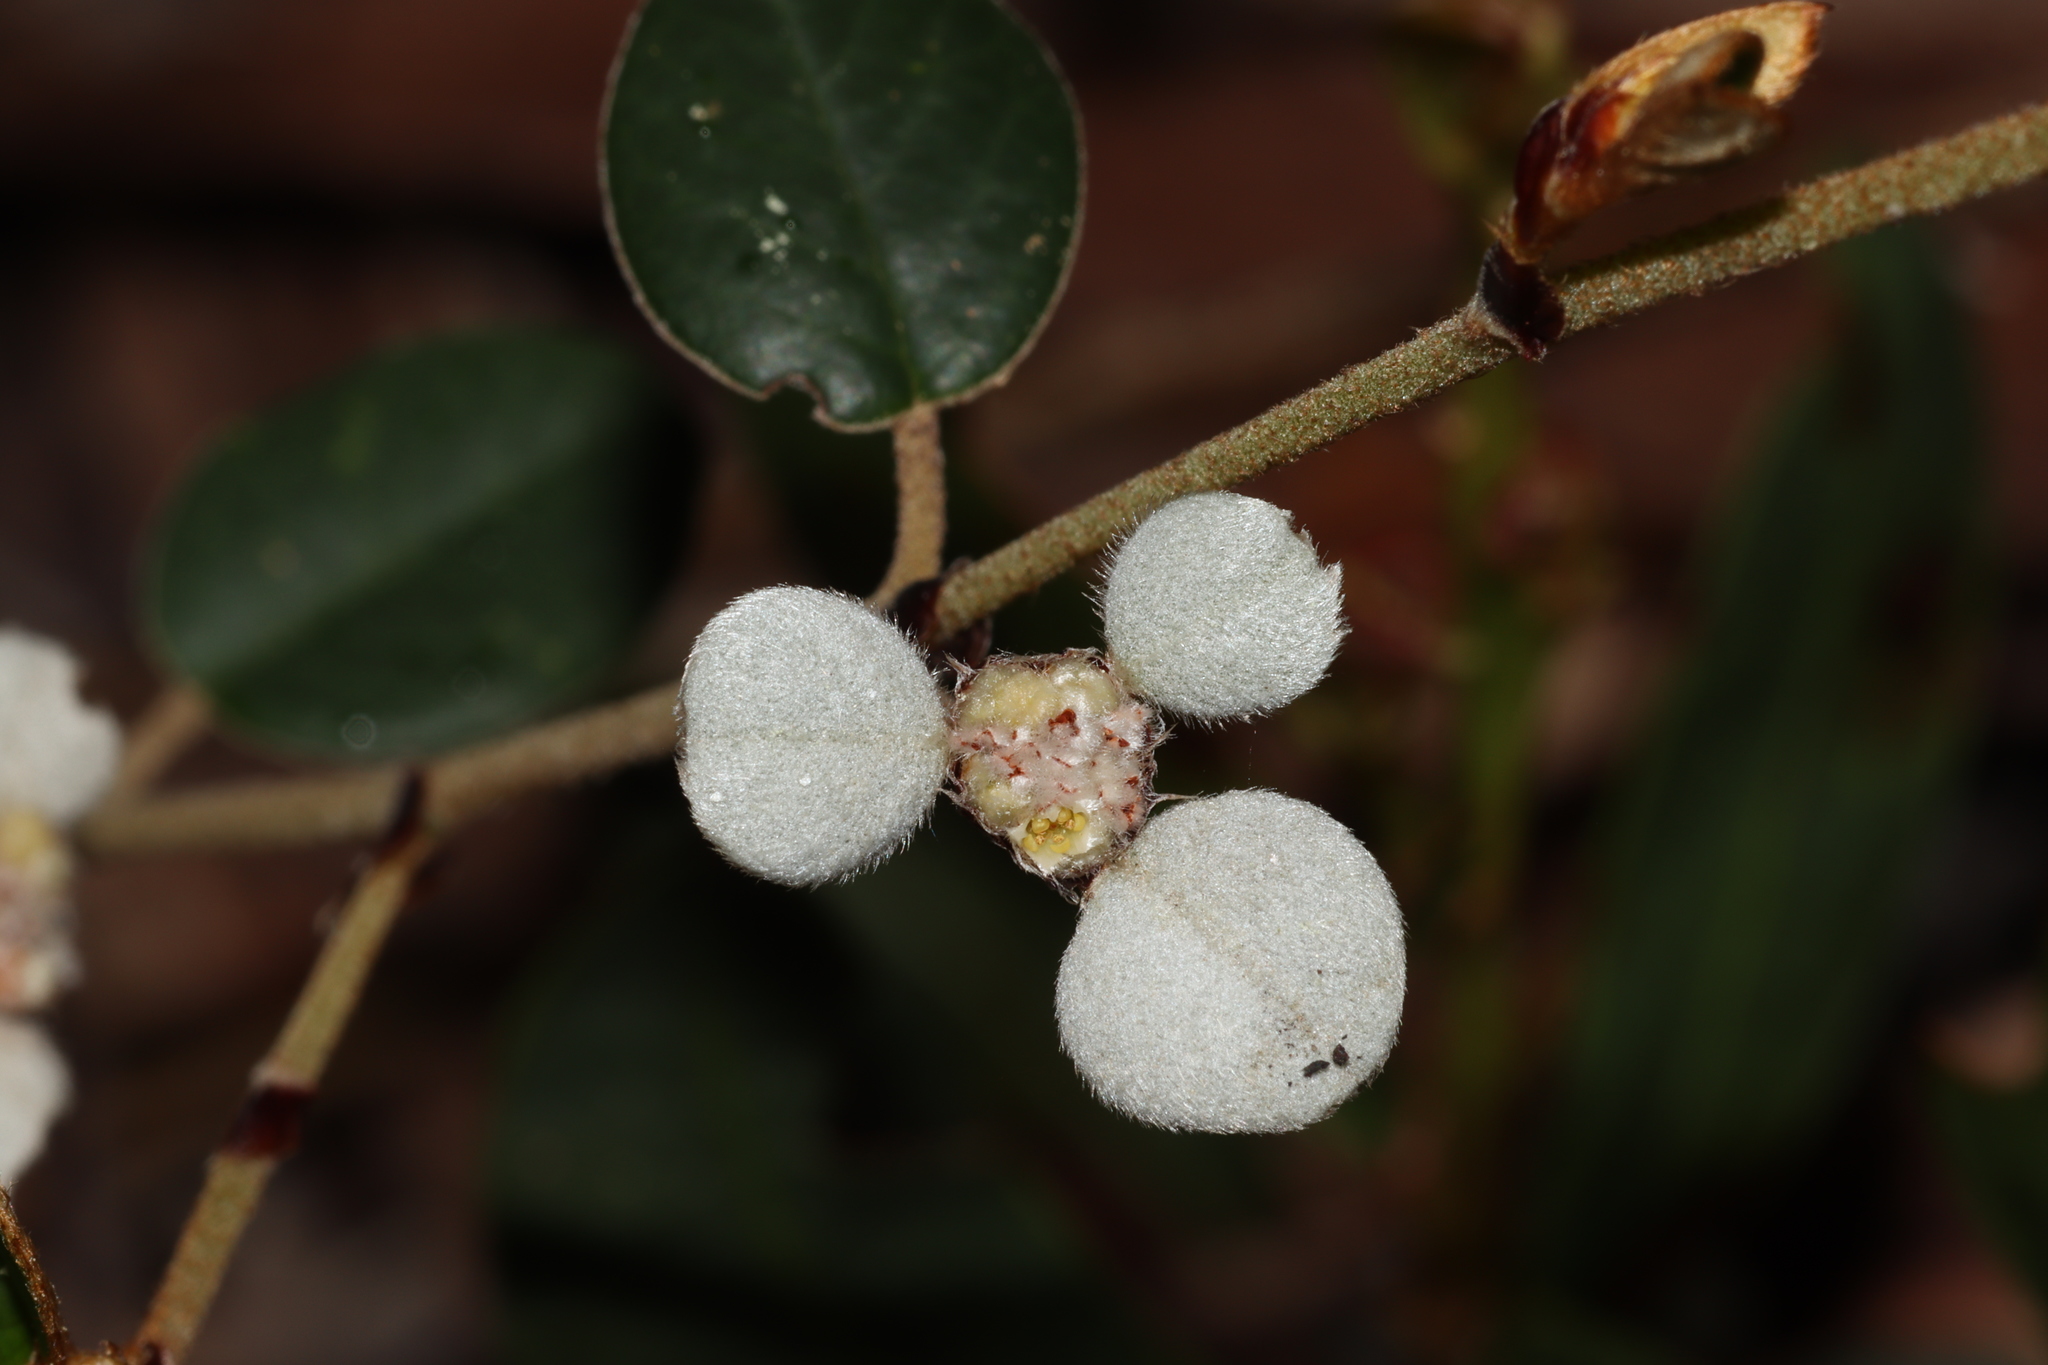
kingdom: Plantae
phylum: Tracheophyta
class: Magnoliopsida
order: Rosales
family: Rhamnaceae
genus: Spyridium
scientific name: Spyridium thymifolium
